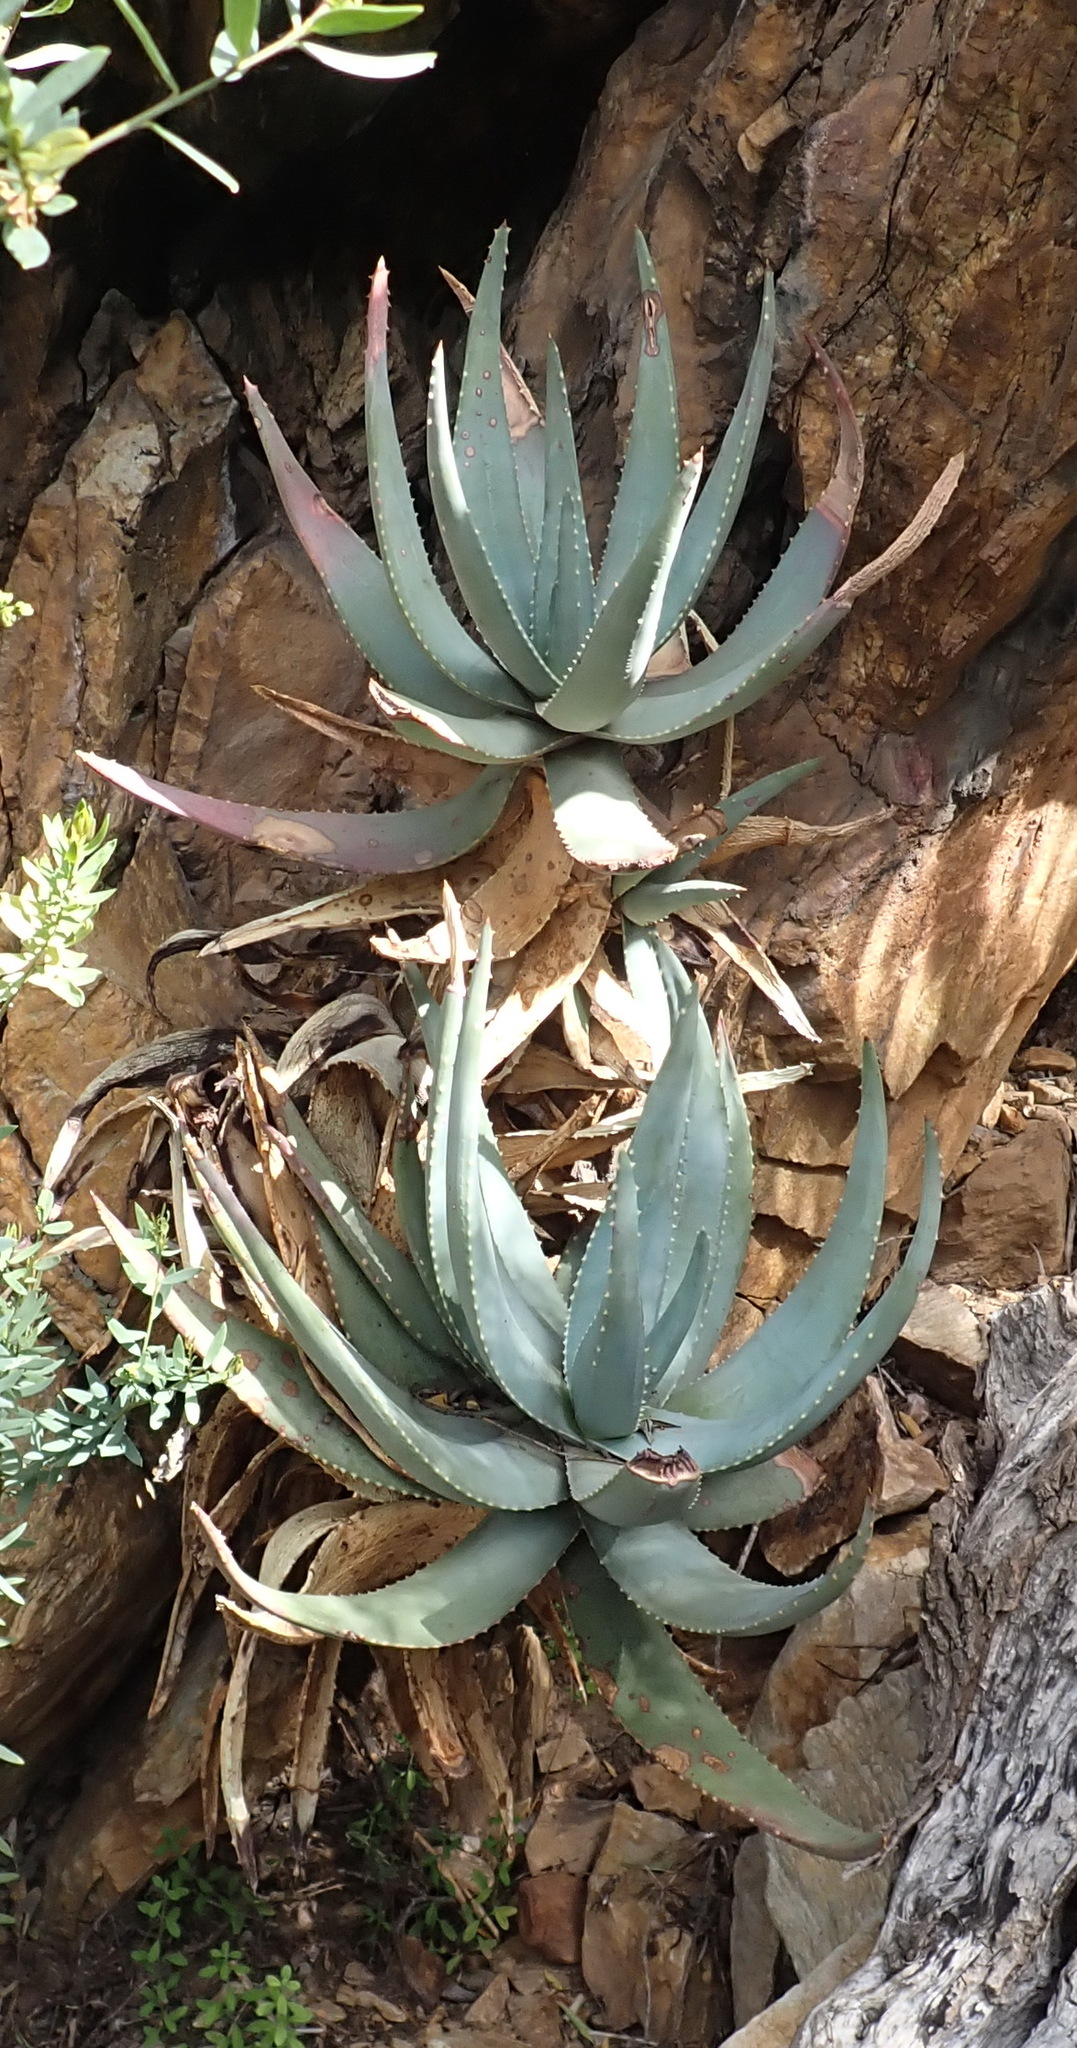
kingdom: Plantae
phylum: Tracheophyta
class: Liliopsida
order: Asparagales
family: Asphodelaceae
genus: Aloe
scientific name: Aloe comptonii
